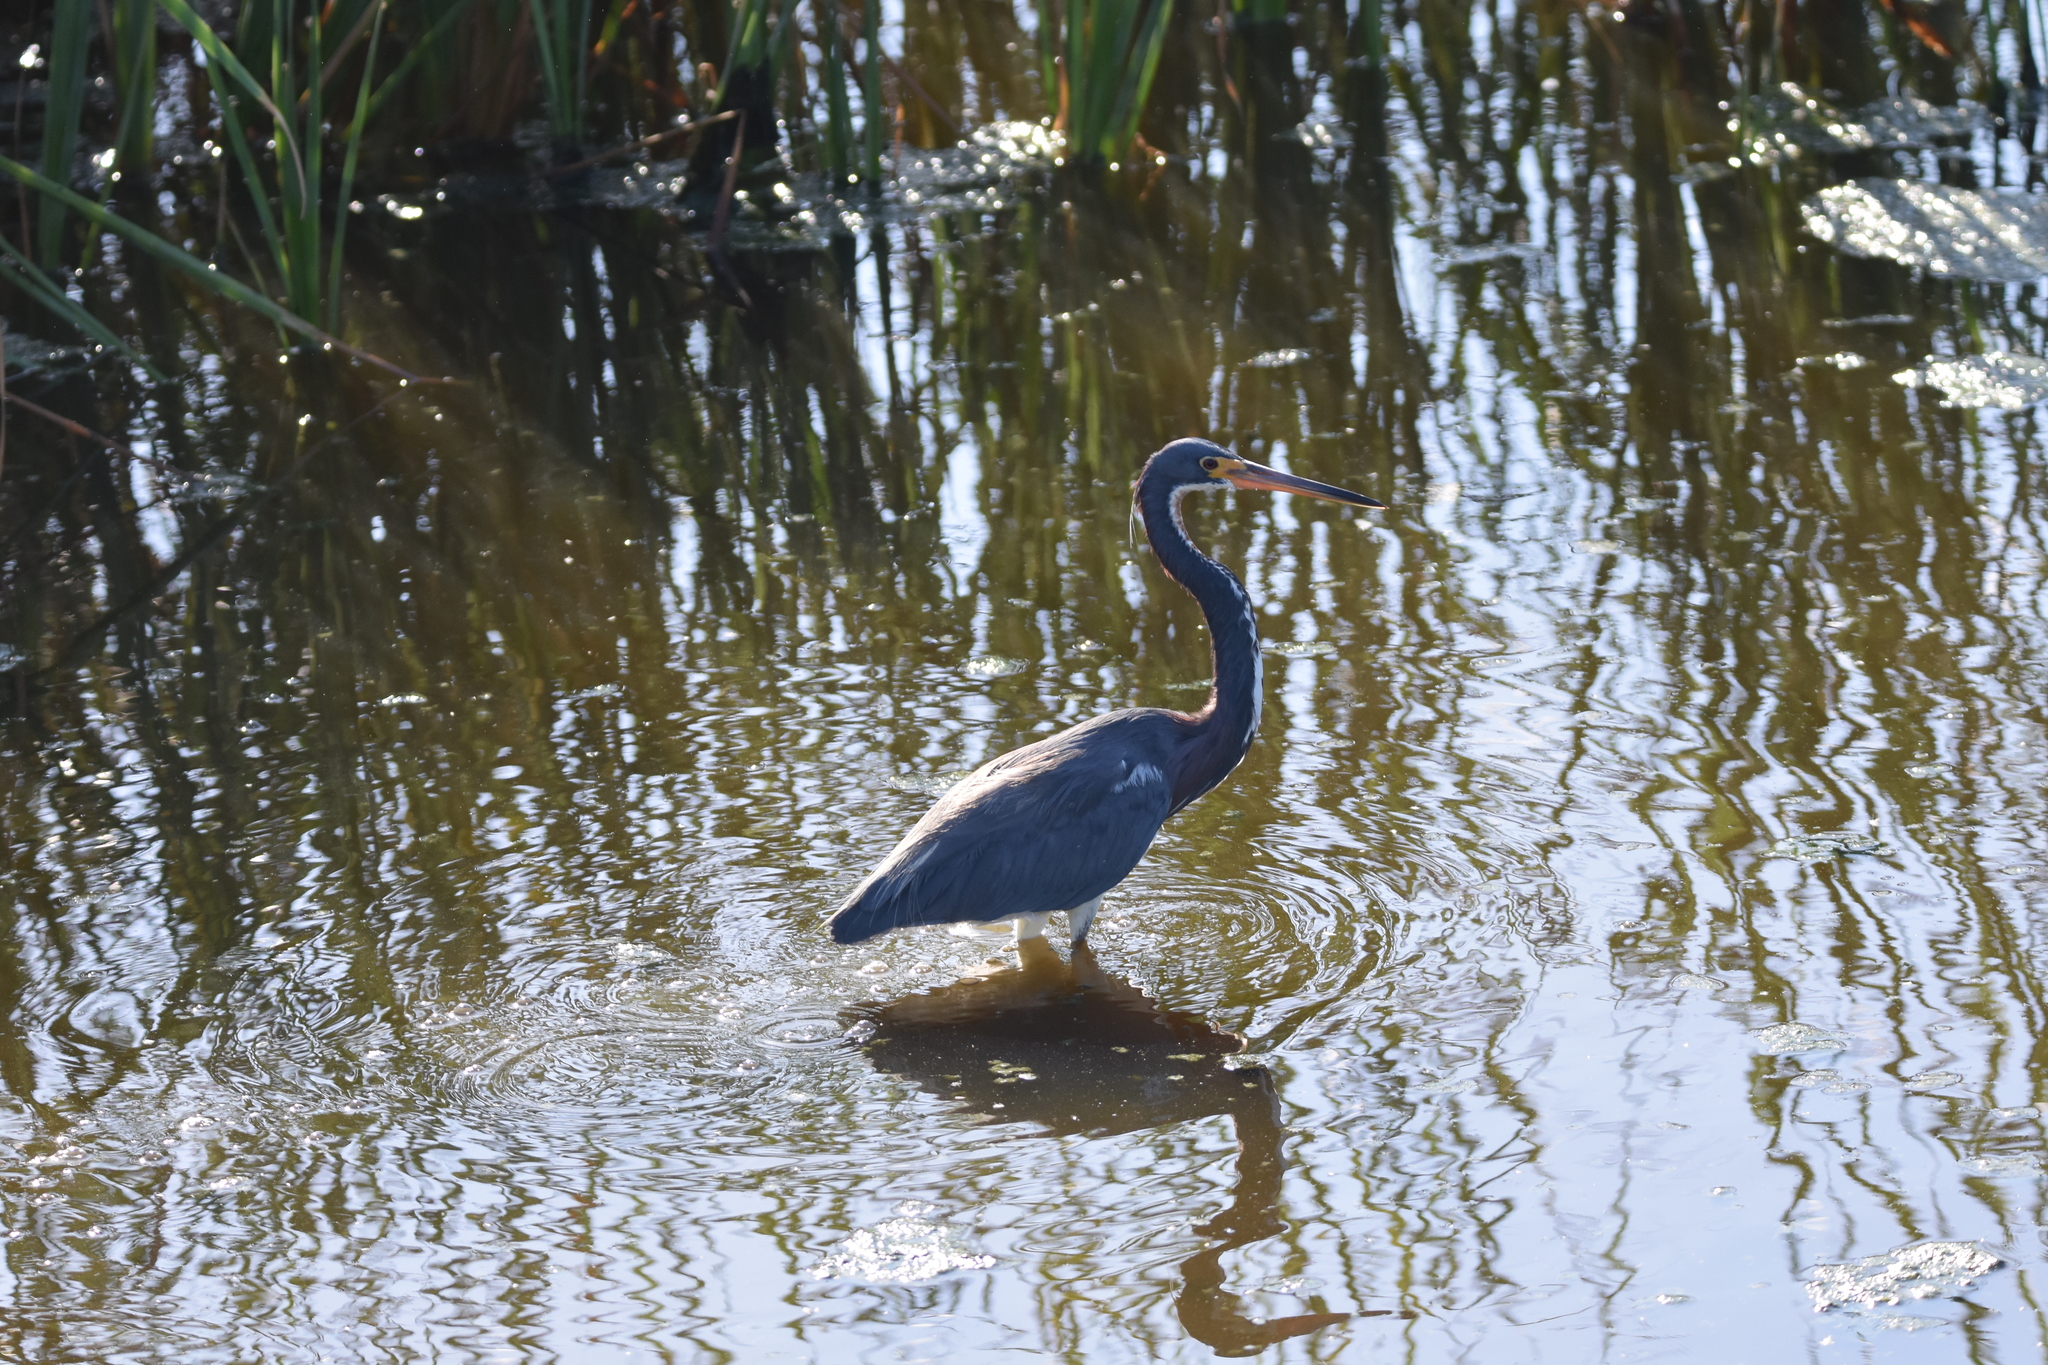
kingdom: Animalia
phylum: Chordata
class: Aves
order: Pelecaniformes
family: Ardeidae
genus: Egretta
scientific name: Egretta tricolor
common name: Tricolored heron
